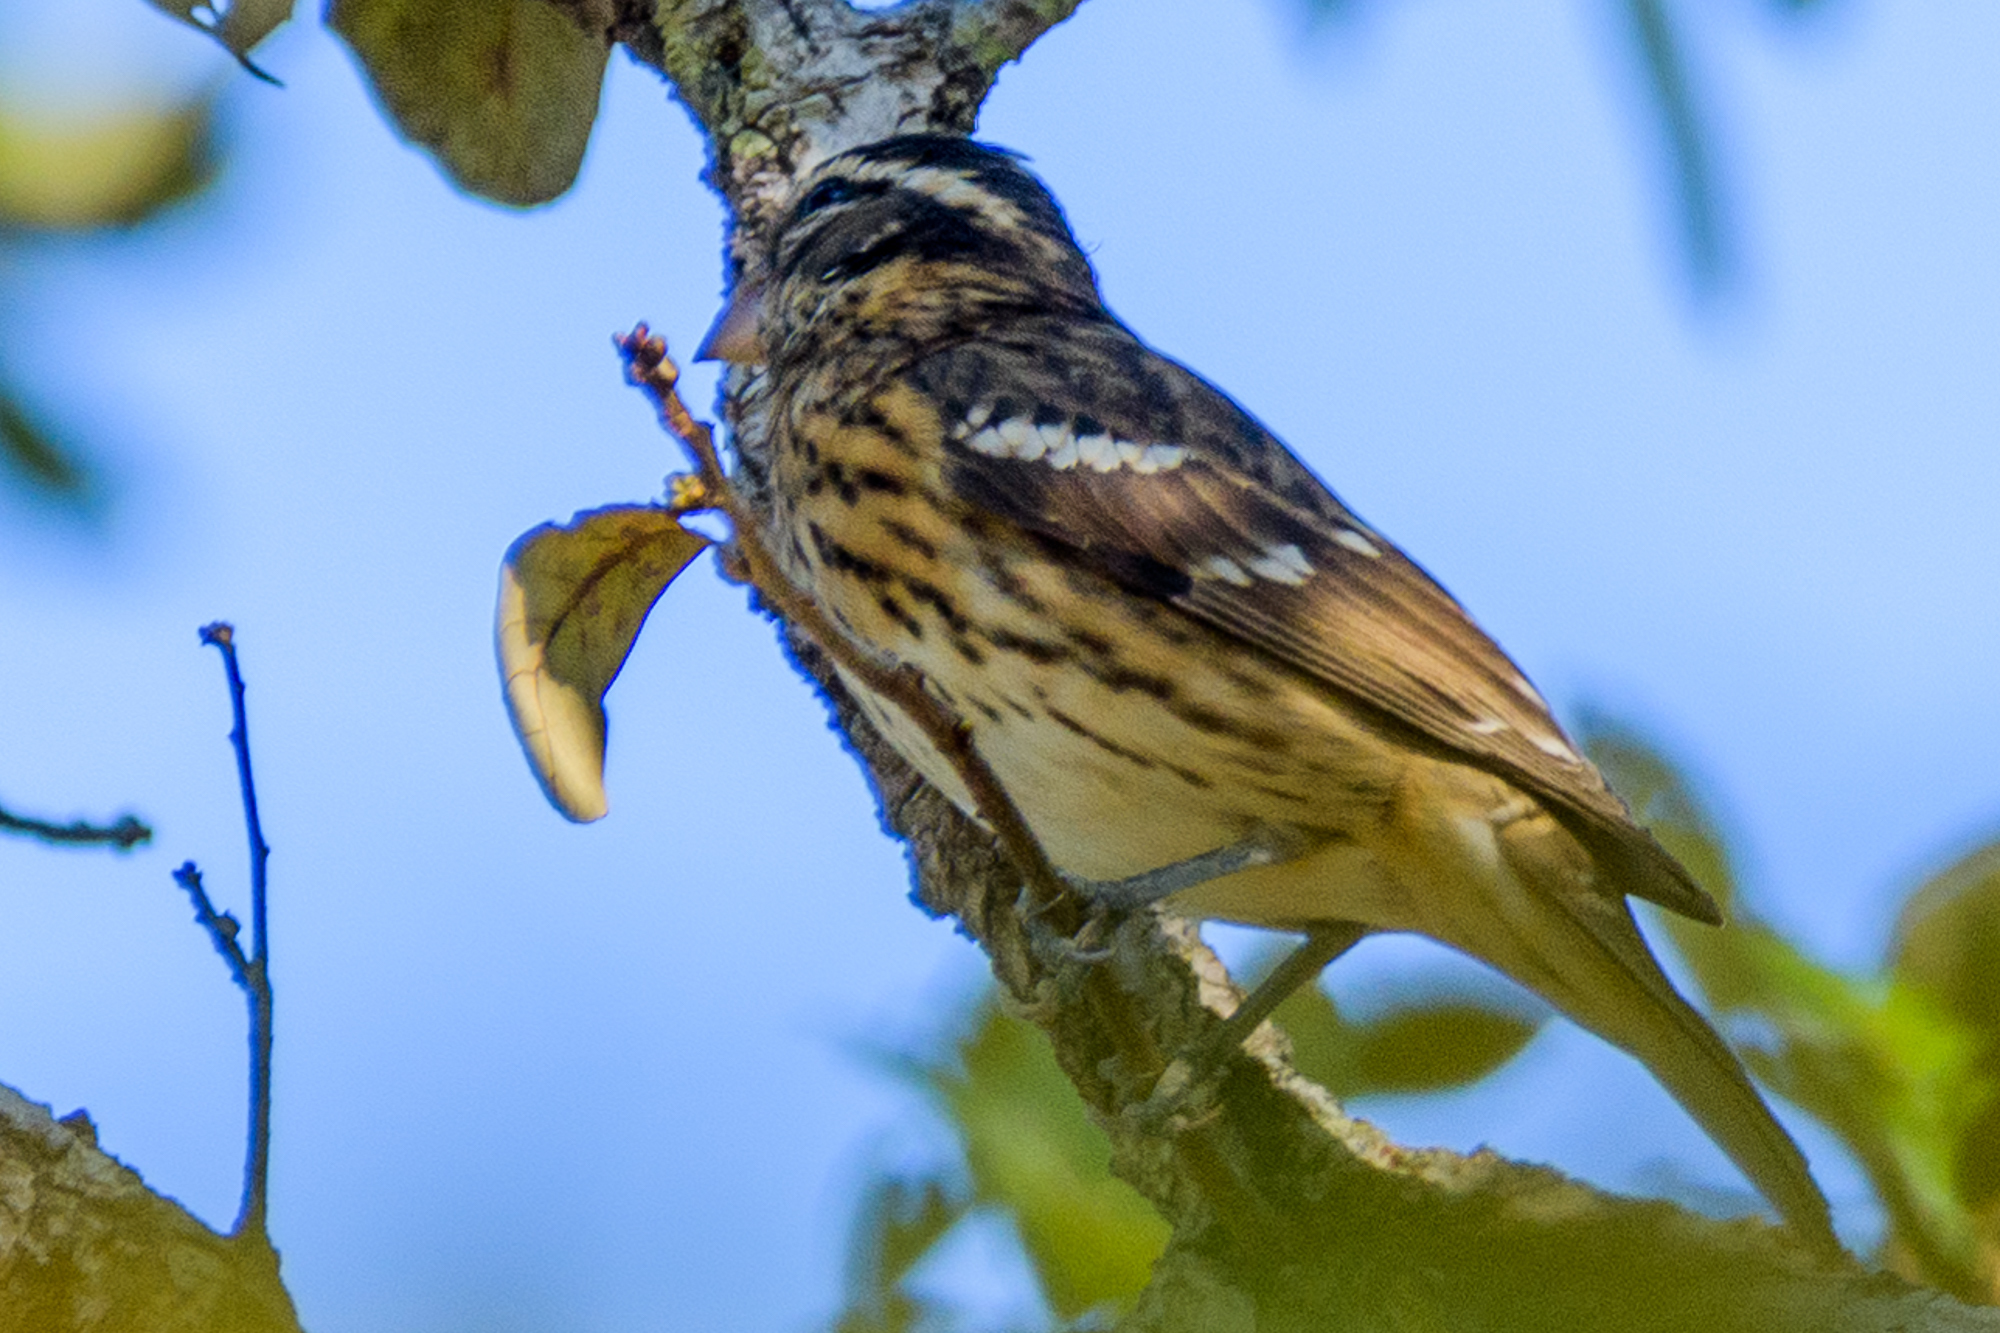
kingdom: Animalia
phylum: Chordata
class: Aves
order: Passeriformes
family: Cardinalidae
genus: Pheucticus
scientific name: Pheucticus ludovicianus
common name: Rose-breasted grosbeak
